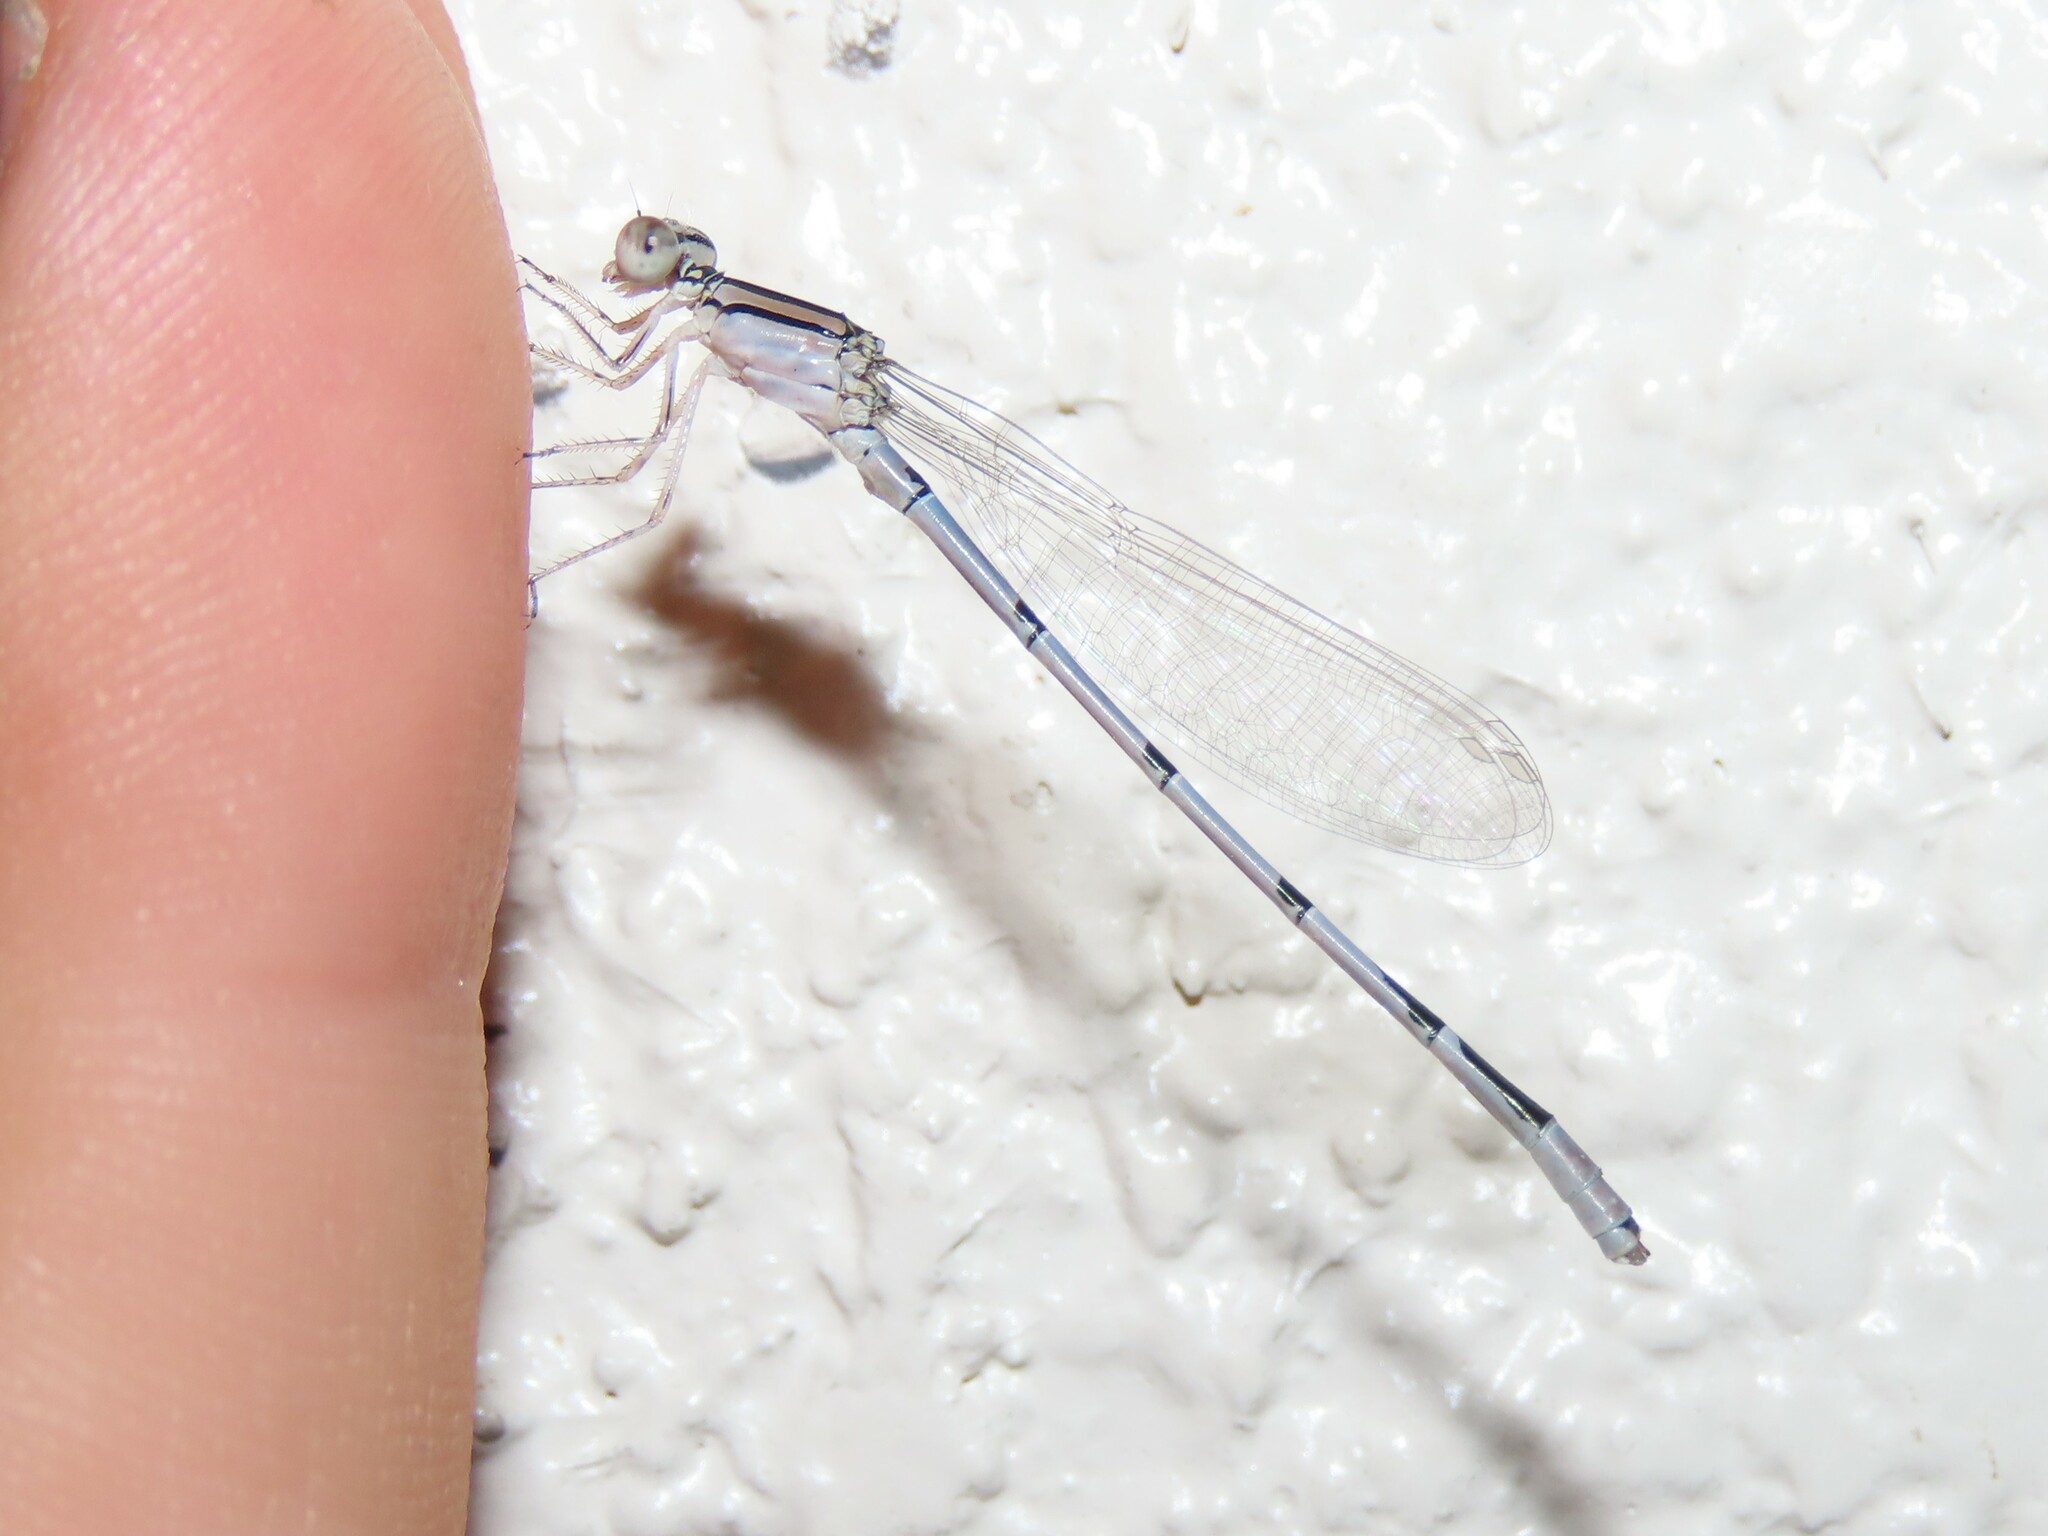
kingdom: Animalia
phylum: Arthropoda
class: Insecta
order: Odonata
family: Coenagrionidae
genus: Enallagma
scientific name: Enallagma civile
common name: Damselfly
